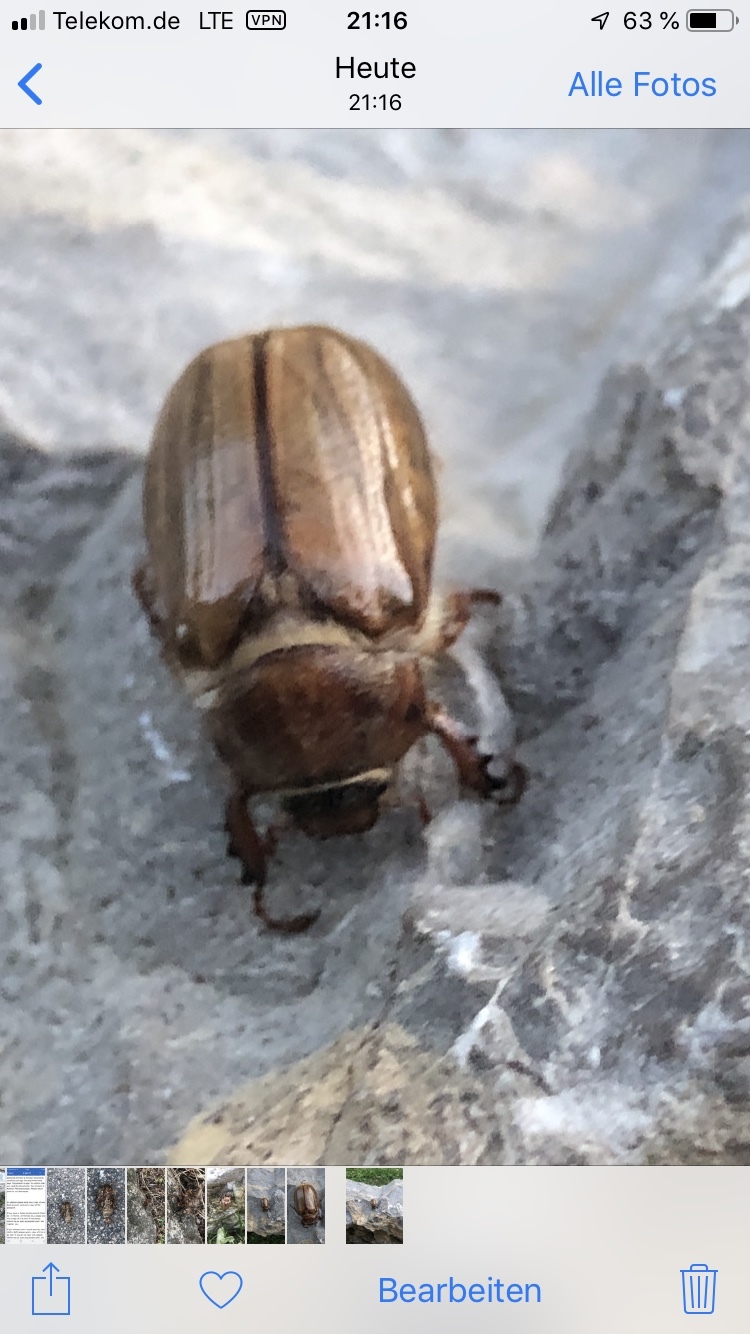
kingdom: Animalia
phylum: Arthropoda
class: Insecta
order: Coleoptera
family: Scarabaeidae
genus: Amphimallon
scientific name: Amphimallon solstitiale
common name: Summer chafer
